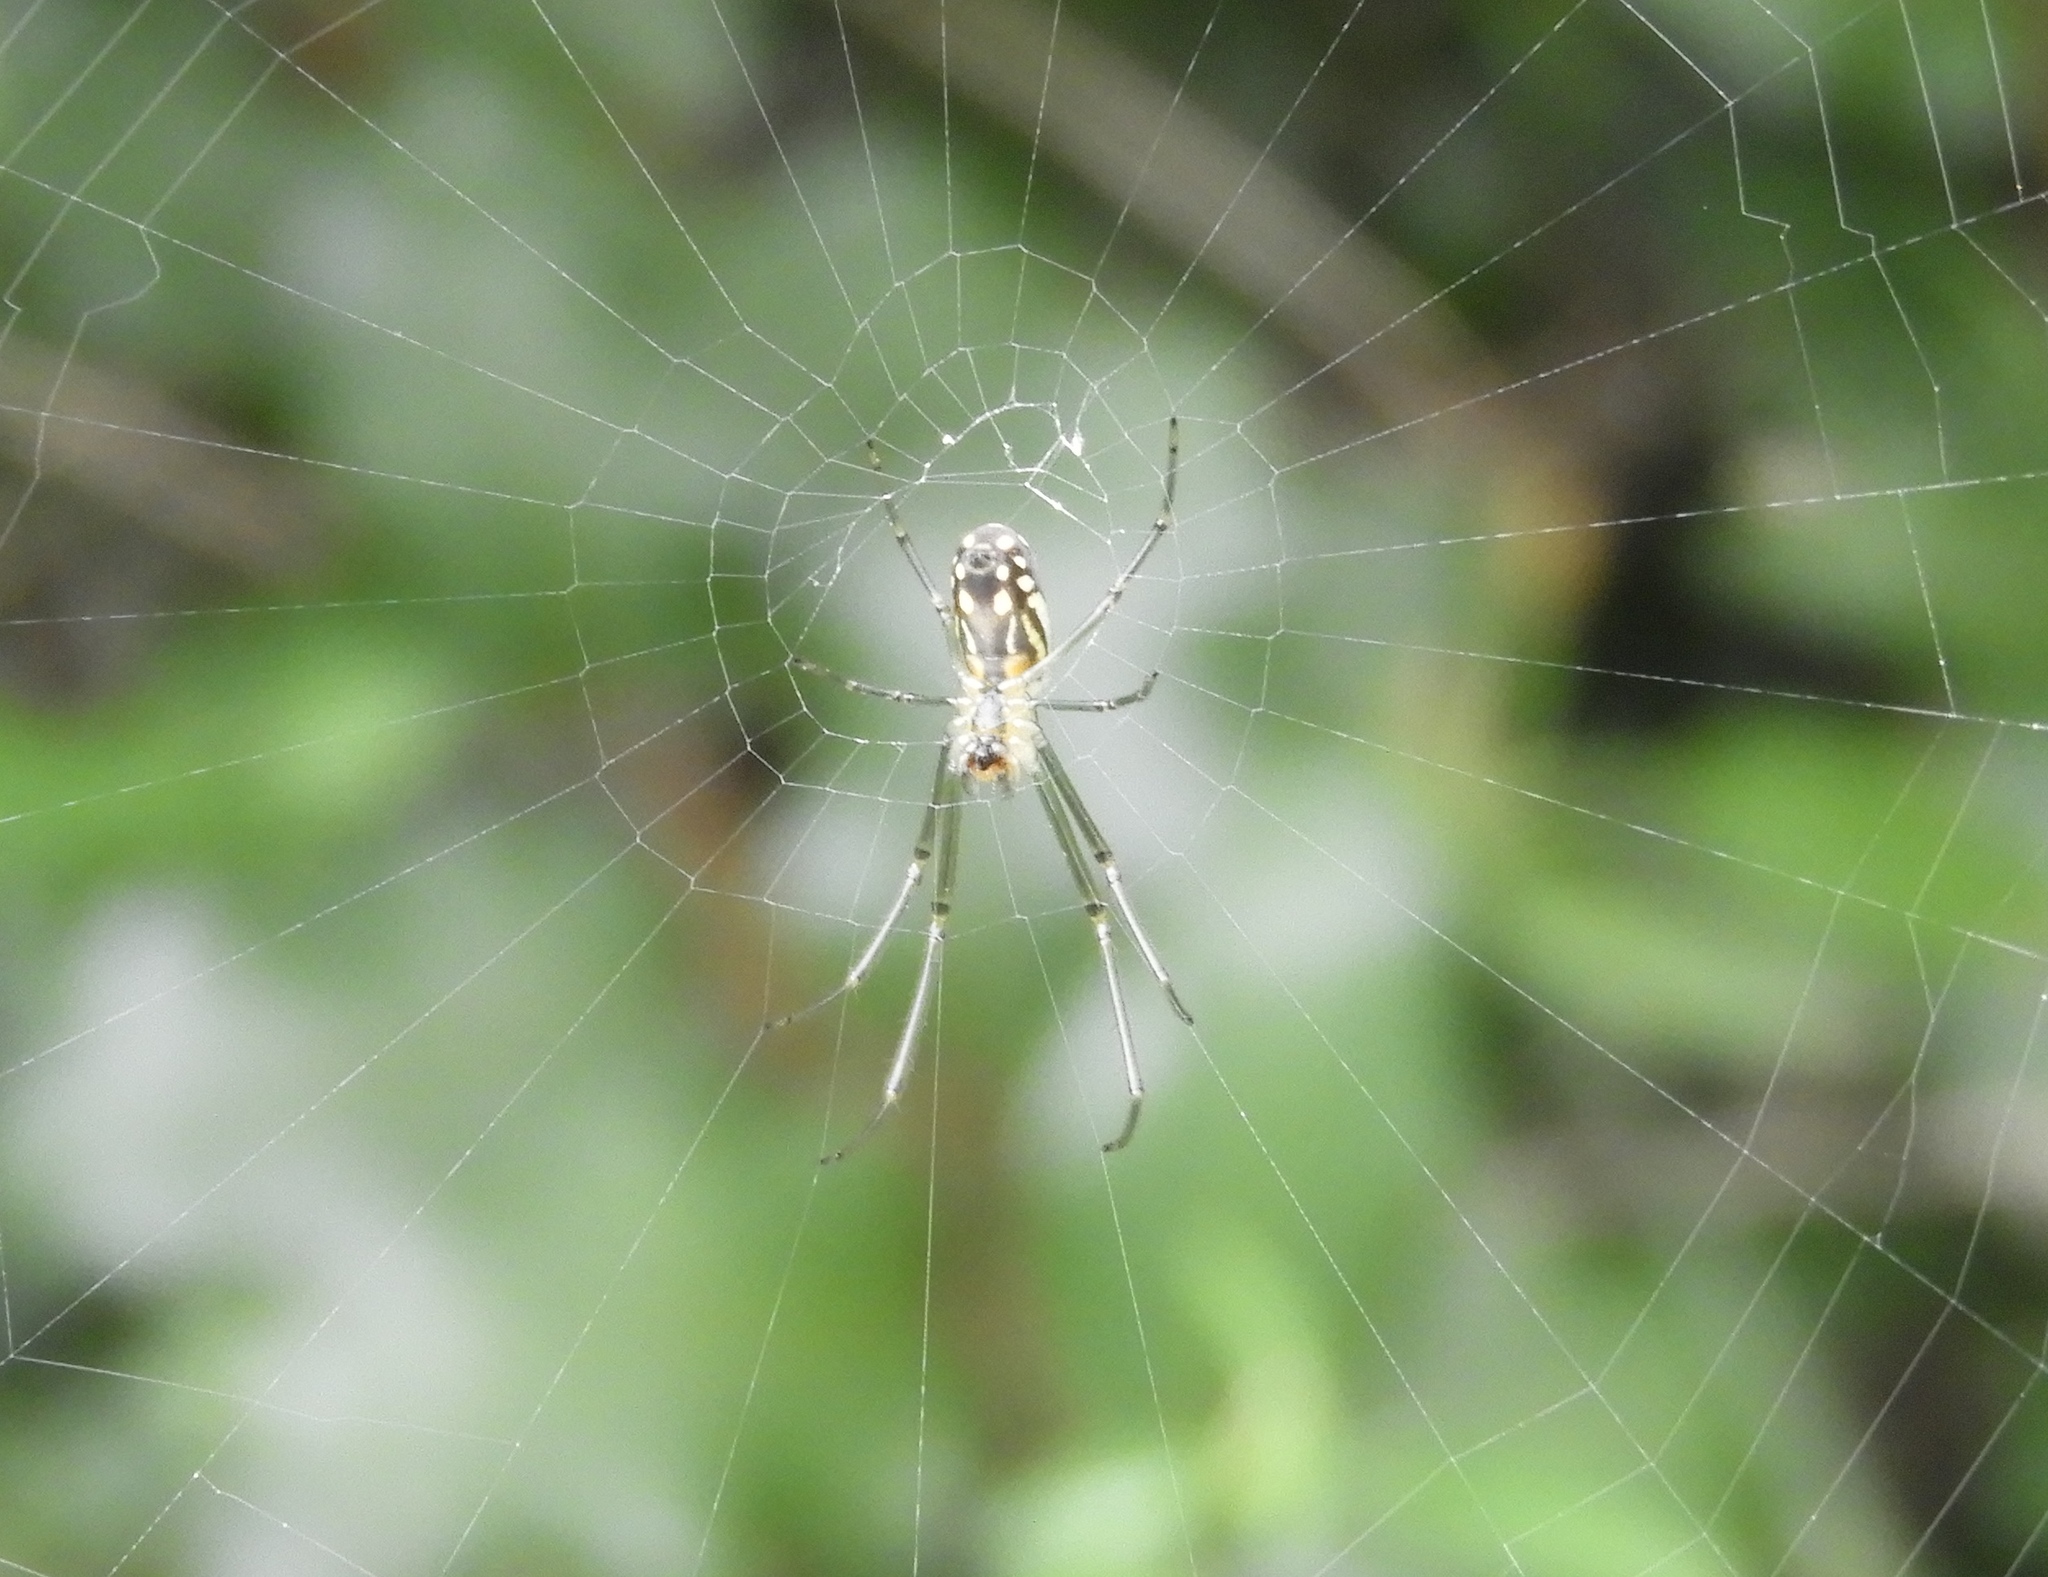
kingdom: Animalia
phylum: Arthropoda
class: Arachnida
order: Araneae
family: Tetragnathidae
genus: Leucauge
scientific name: Leucauge
